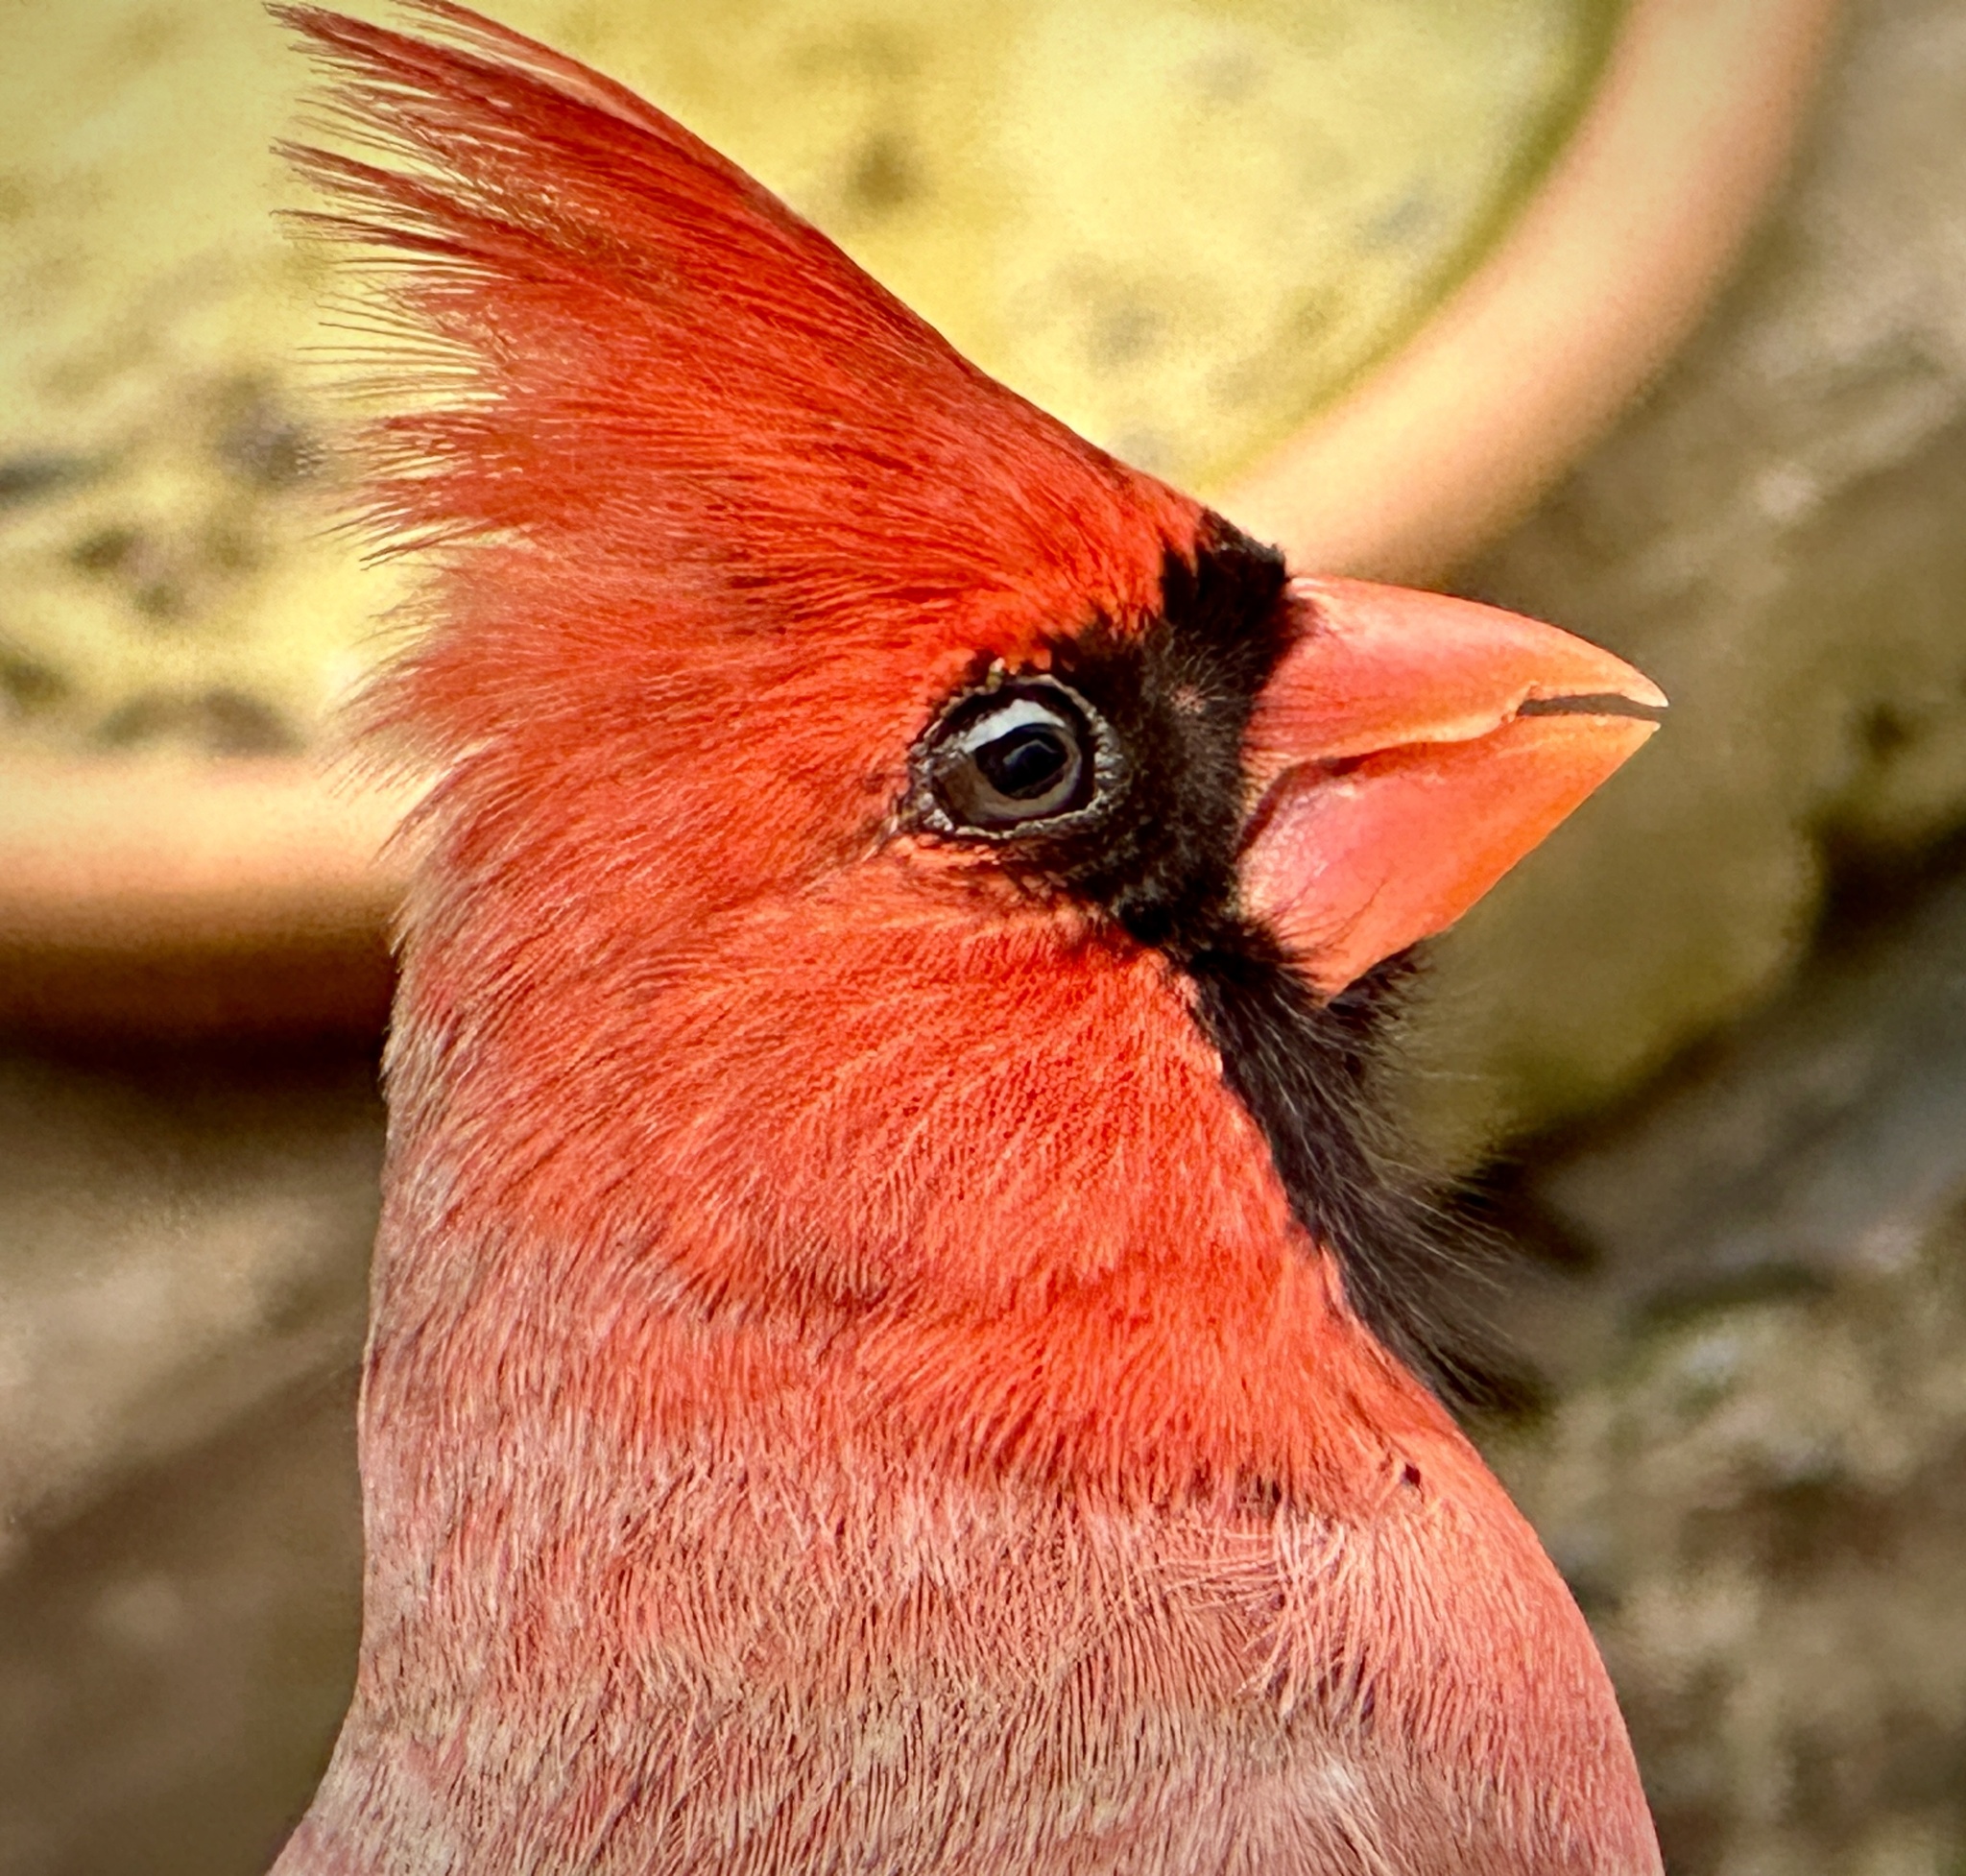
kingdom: Animalia
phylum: Chordata
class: Aves
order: Passeriformes
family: Cardinalidae
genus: Cardinalis
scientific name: Cardinalis cardinalis
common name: Northern cardinal
